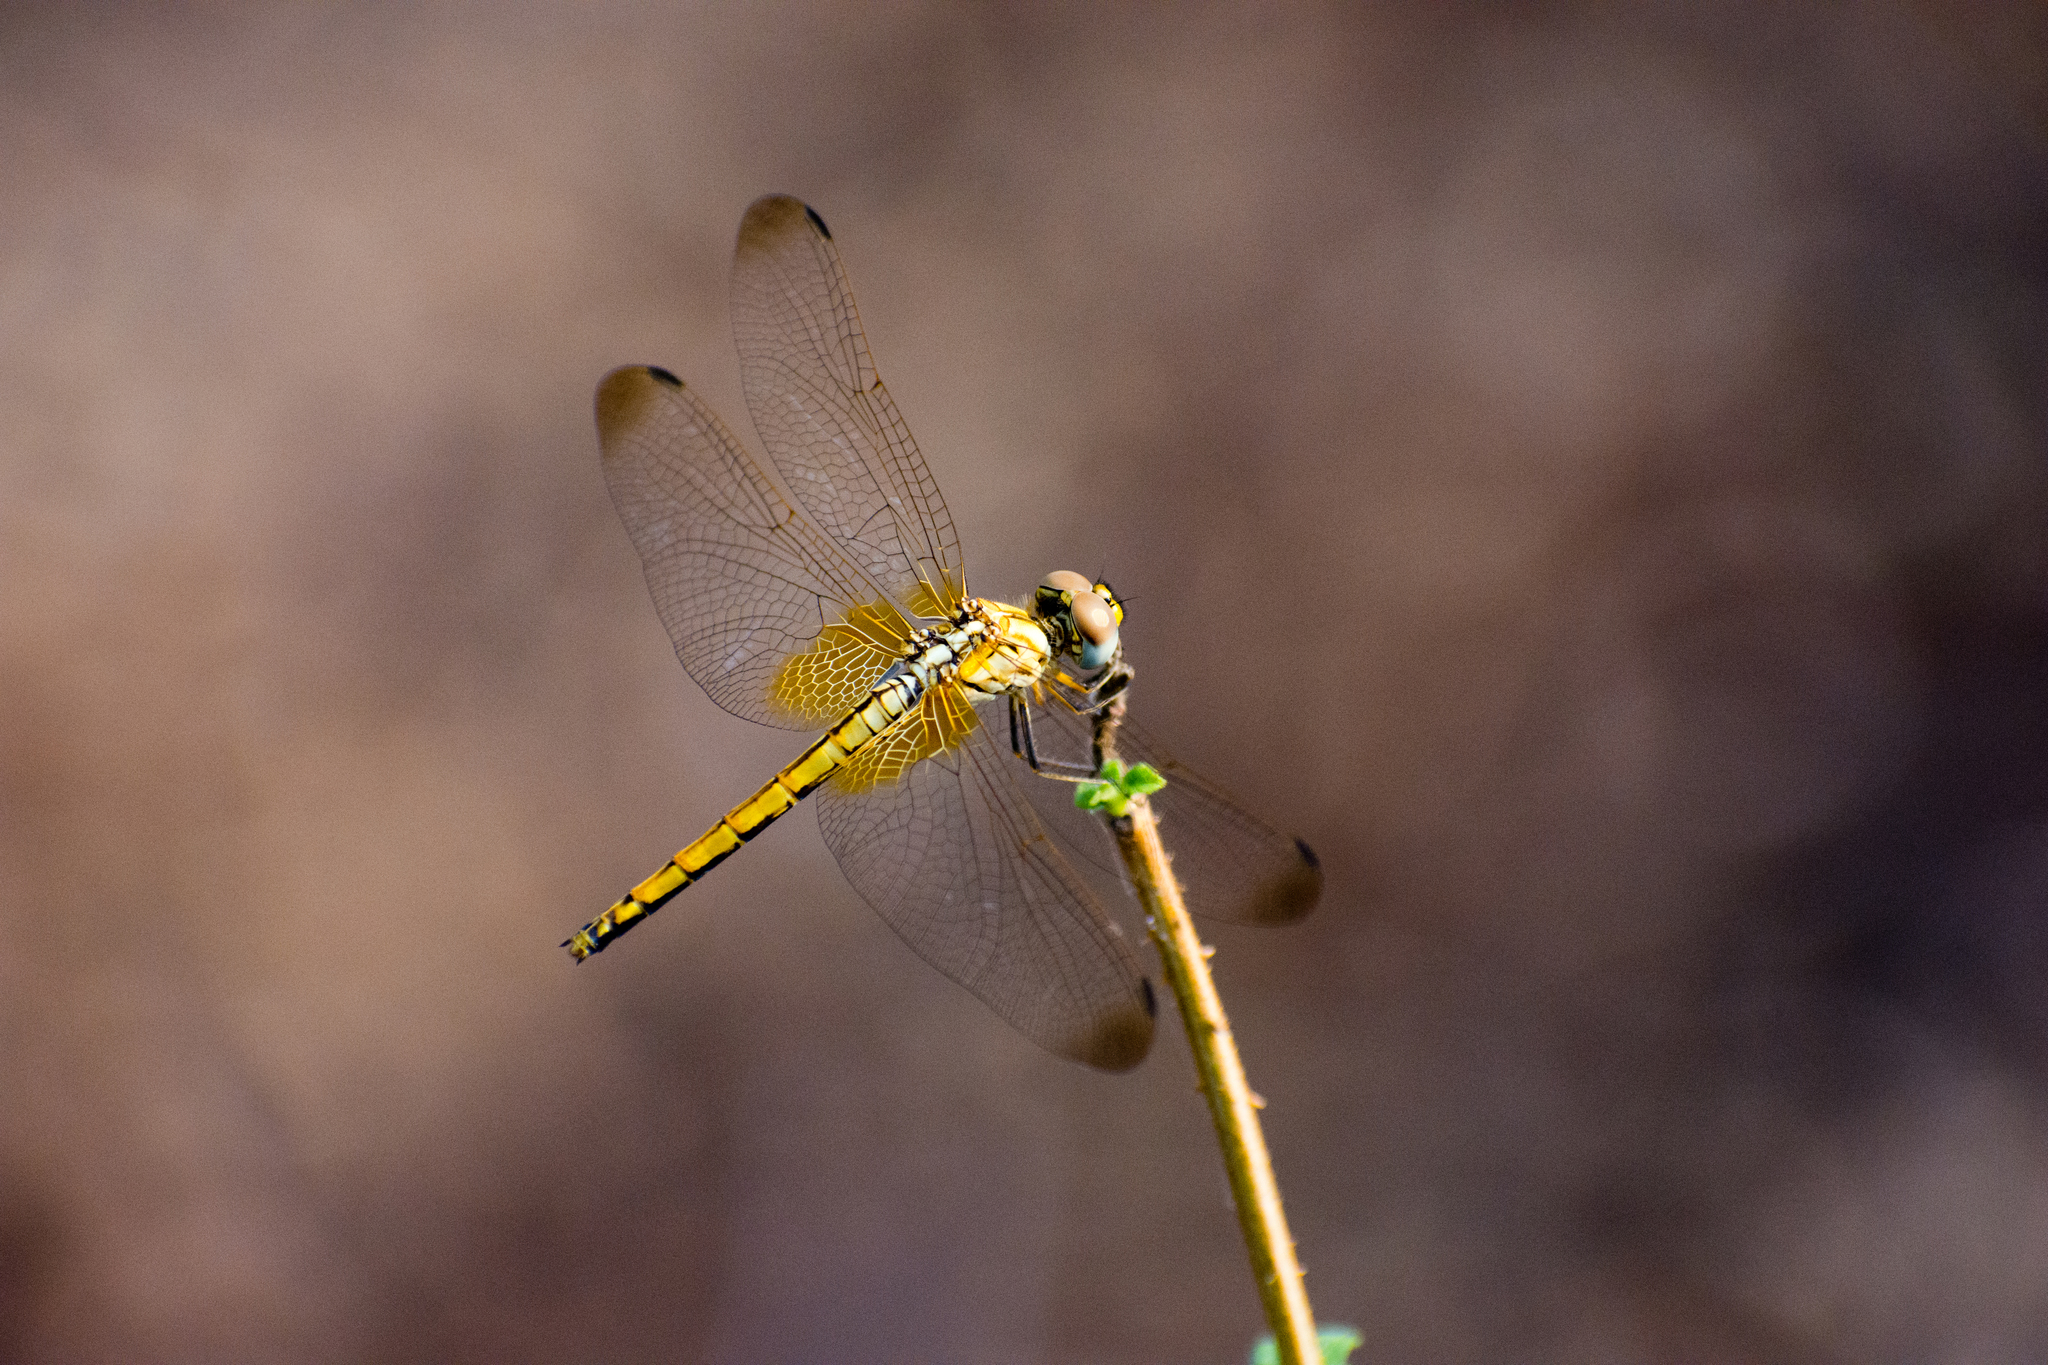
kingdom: Animalia
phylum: Arthropoda
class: Insecta
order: Odonata
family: Libellulidae
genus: Trithemis
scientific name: Trithemis aurora
